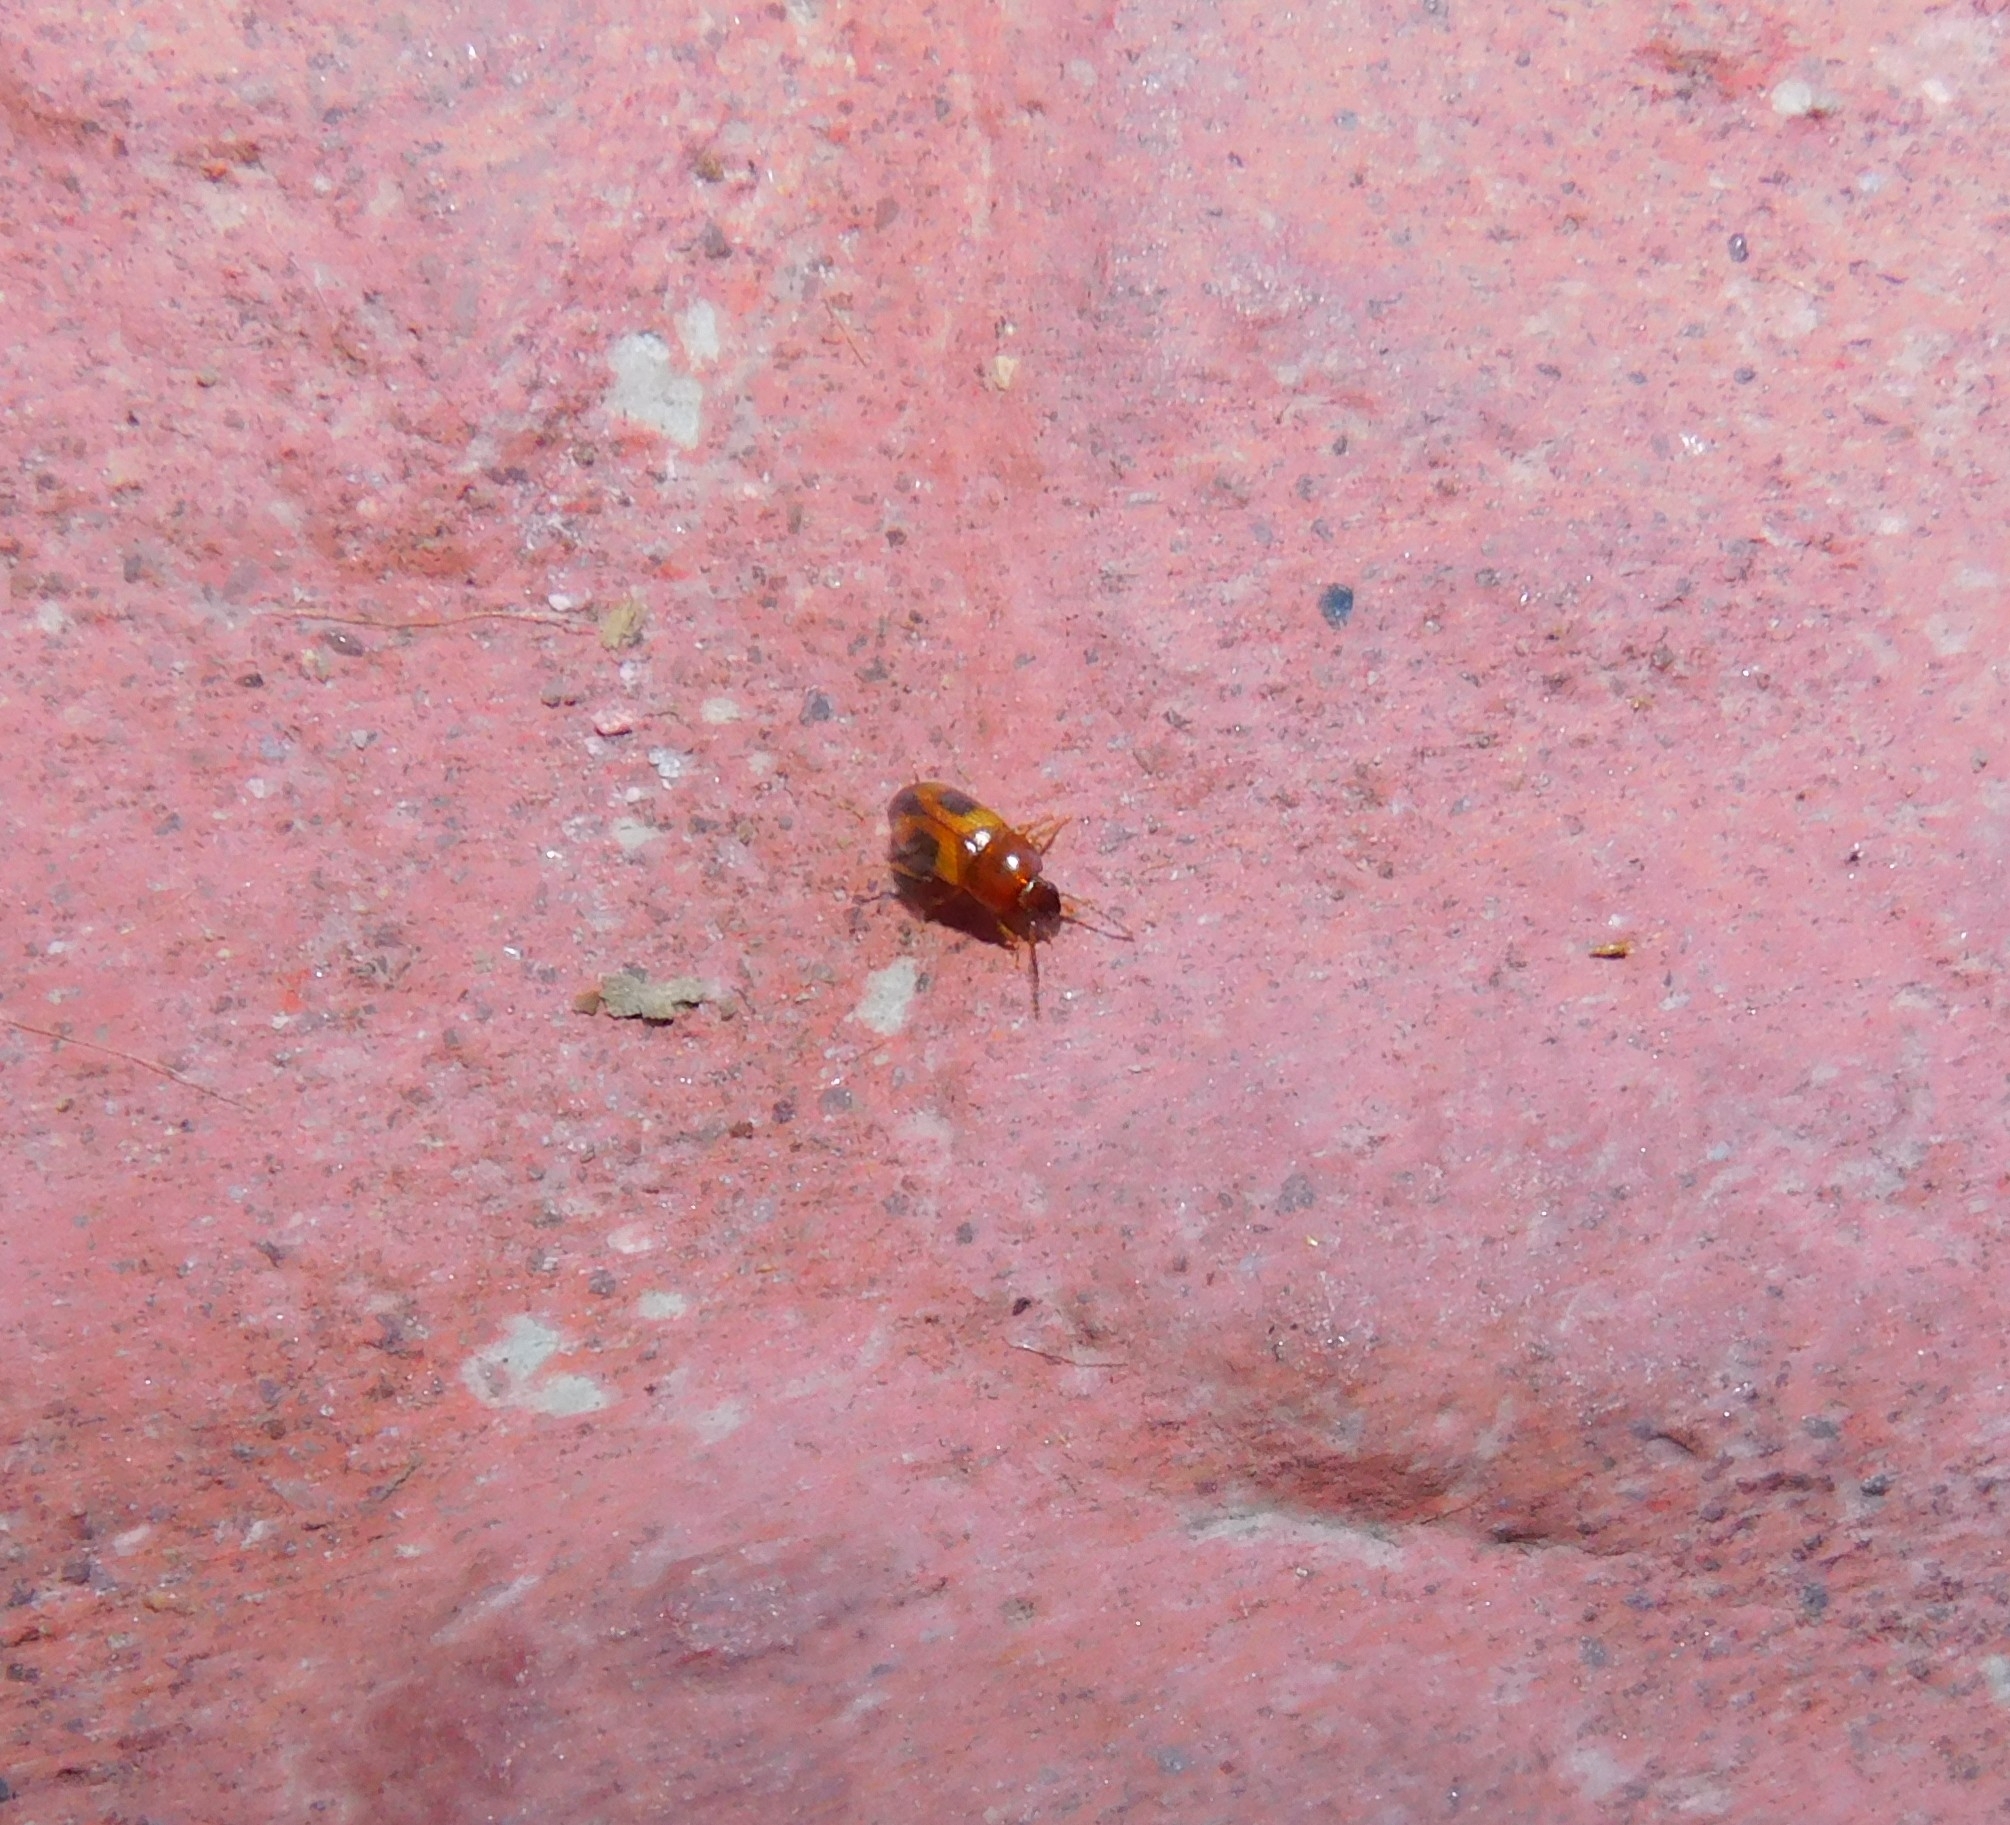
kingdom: Animalia
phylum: Arthropoda
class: Insecta
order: Coleoptera
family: Tenebrionidae
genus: Poecilocrypticus
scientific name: Poecilocrypticus formicophilus
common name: Darkling beetle
